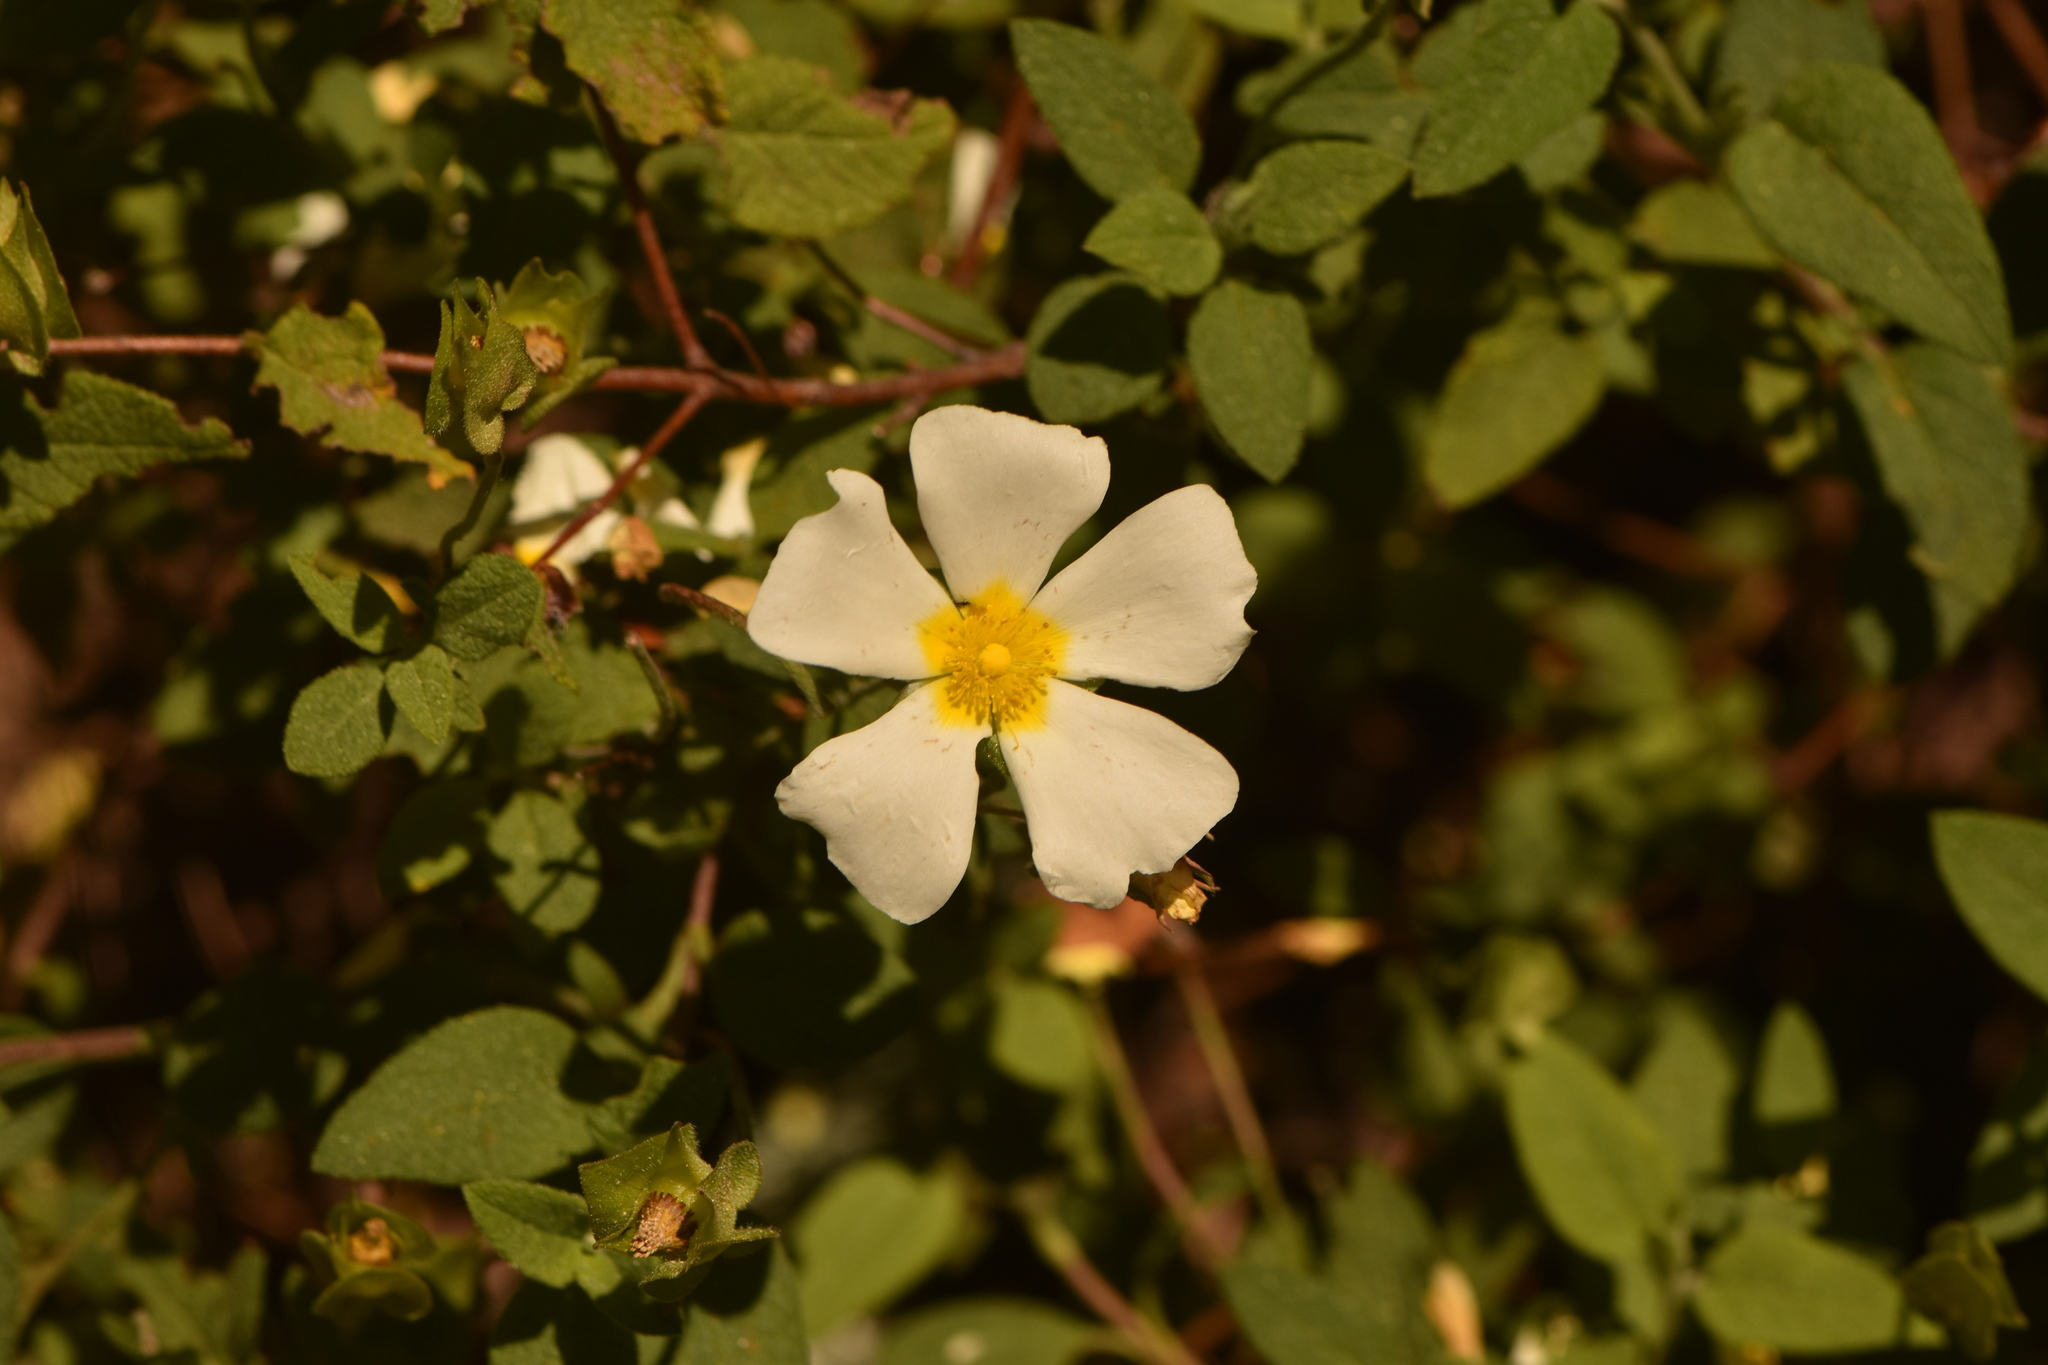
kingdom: Plantae
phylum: Tracheophyta
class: Magnoliopsida
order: Malvales
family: Cistaceae
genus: Cistus
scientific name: Cistus salviifolius
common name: Salvia cistus
